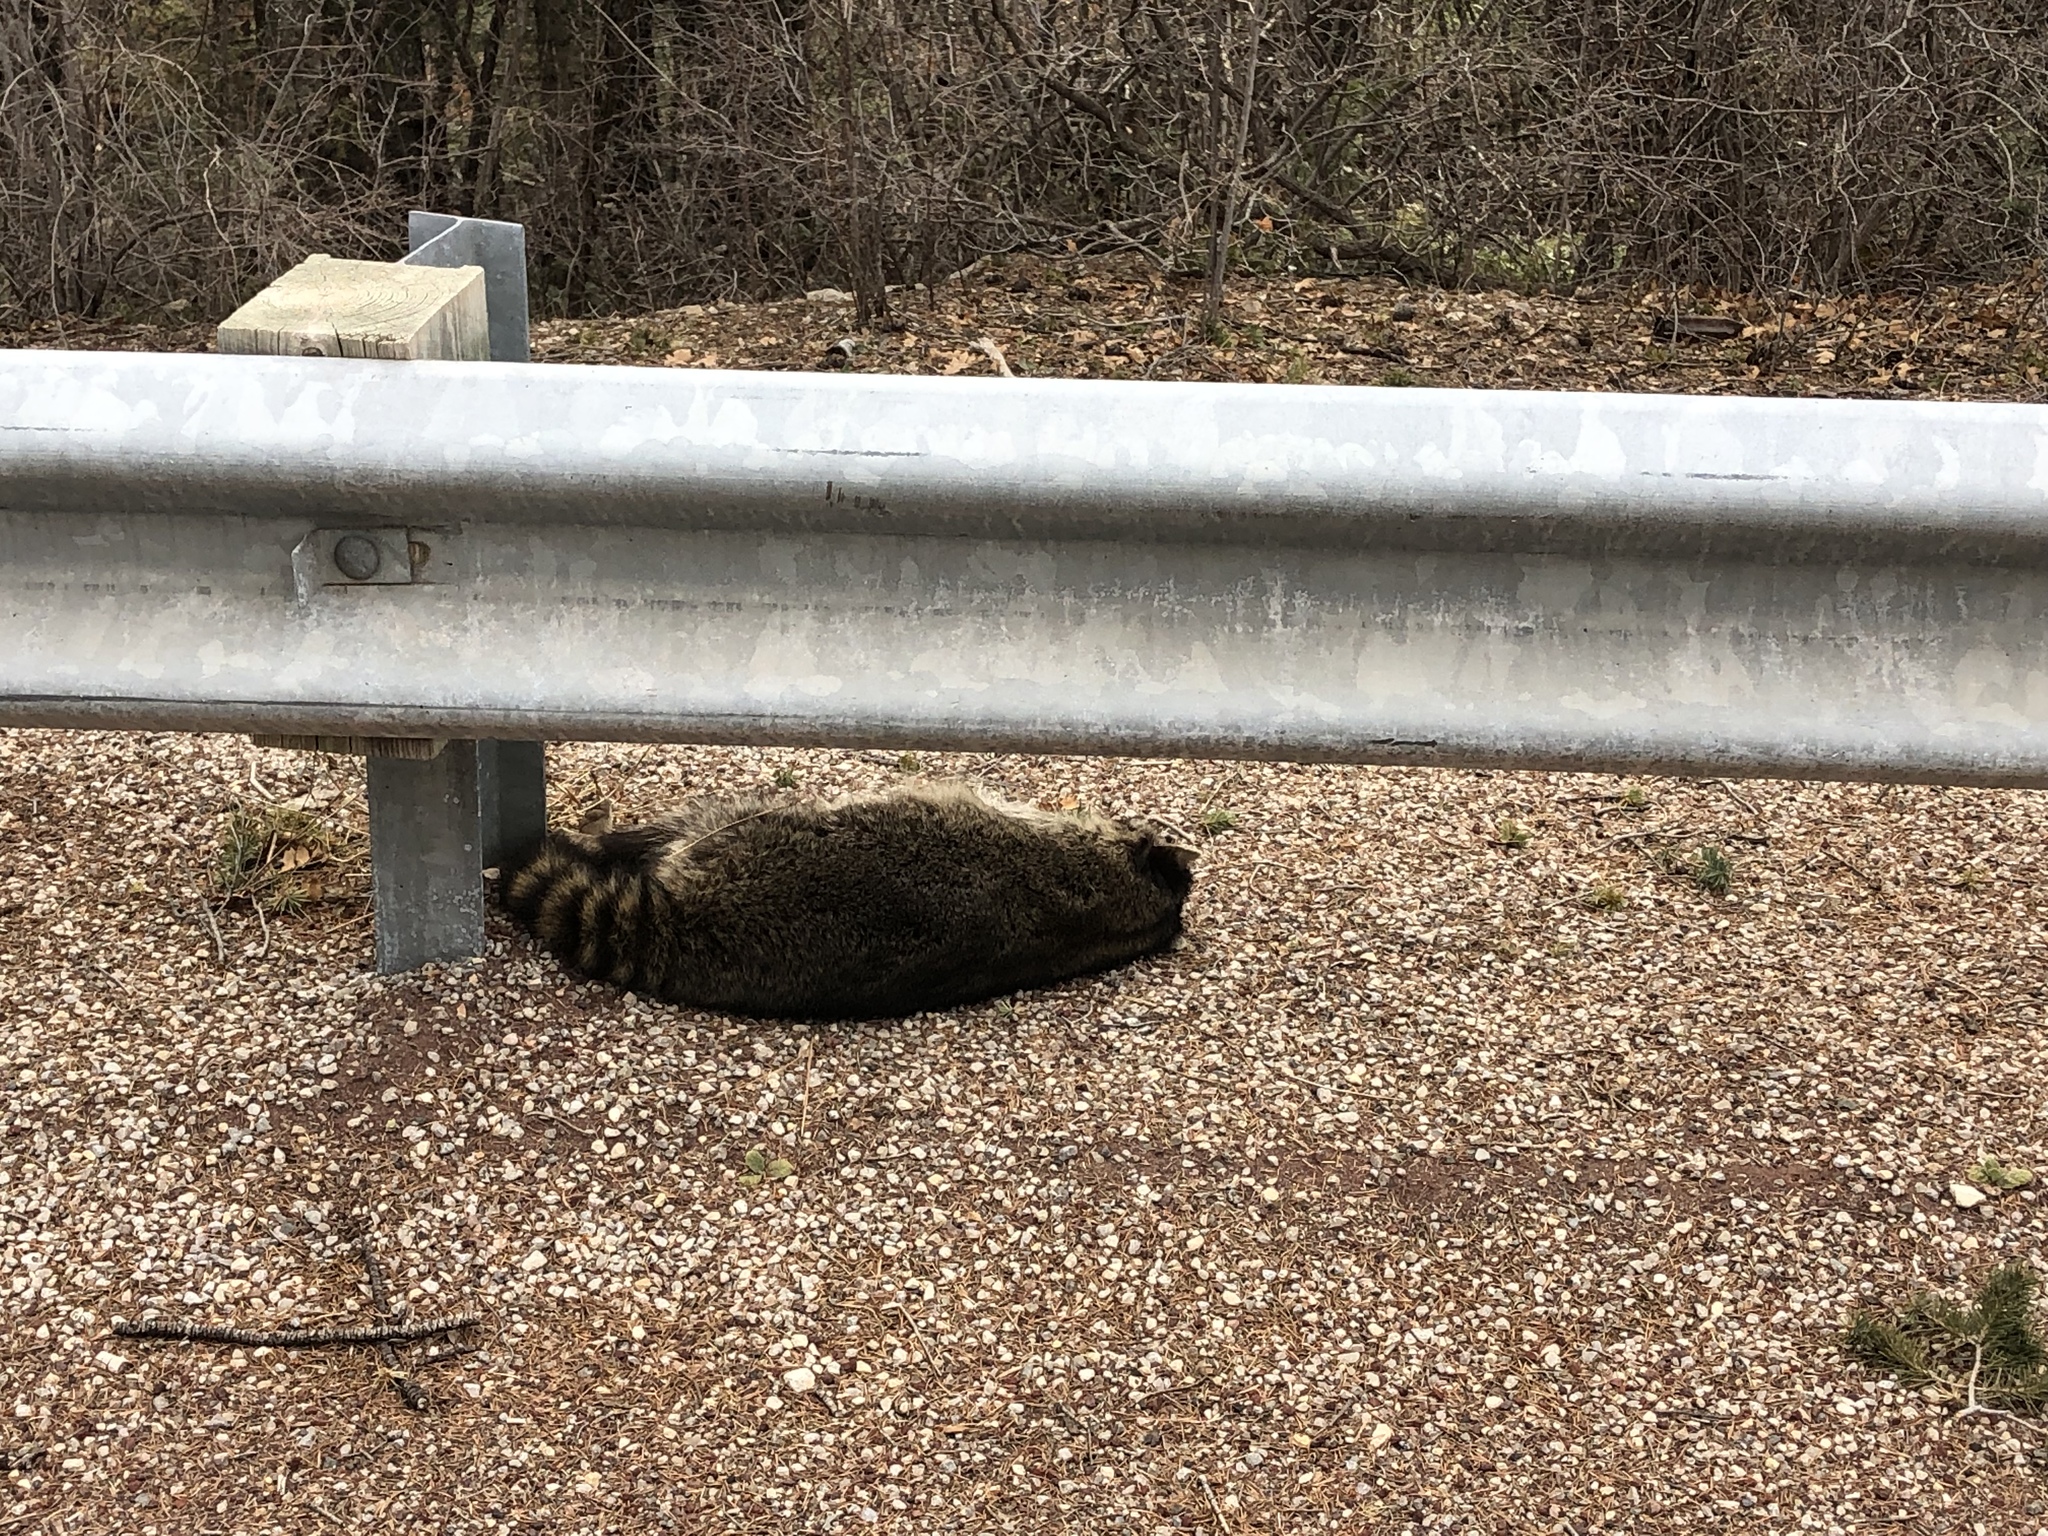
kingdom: Animalia
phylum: Chordata
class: Mammalia
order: Carnivora
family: Procyonidae
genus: Procyon
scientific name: Procyon lotor
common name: Raccoon
